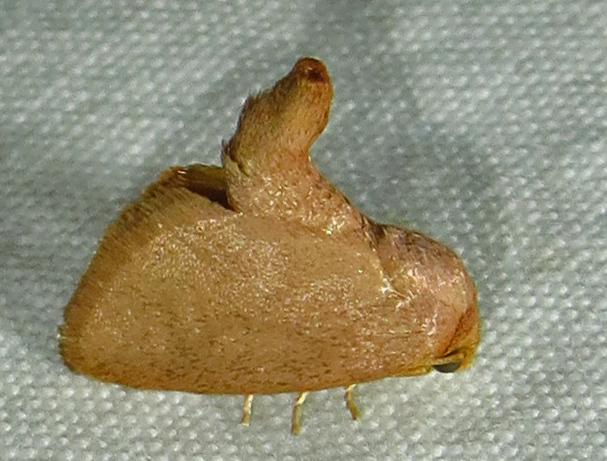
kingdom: Animalia
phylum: Arthropoda
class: Insecta
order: Lepidoptera
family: Limacodidae
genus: Tortricidia
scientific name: Tortricidia pallida
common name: Red-crossed button slug moth
